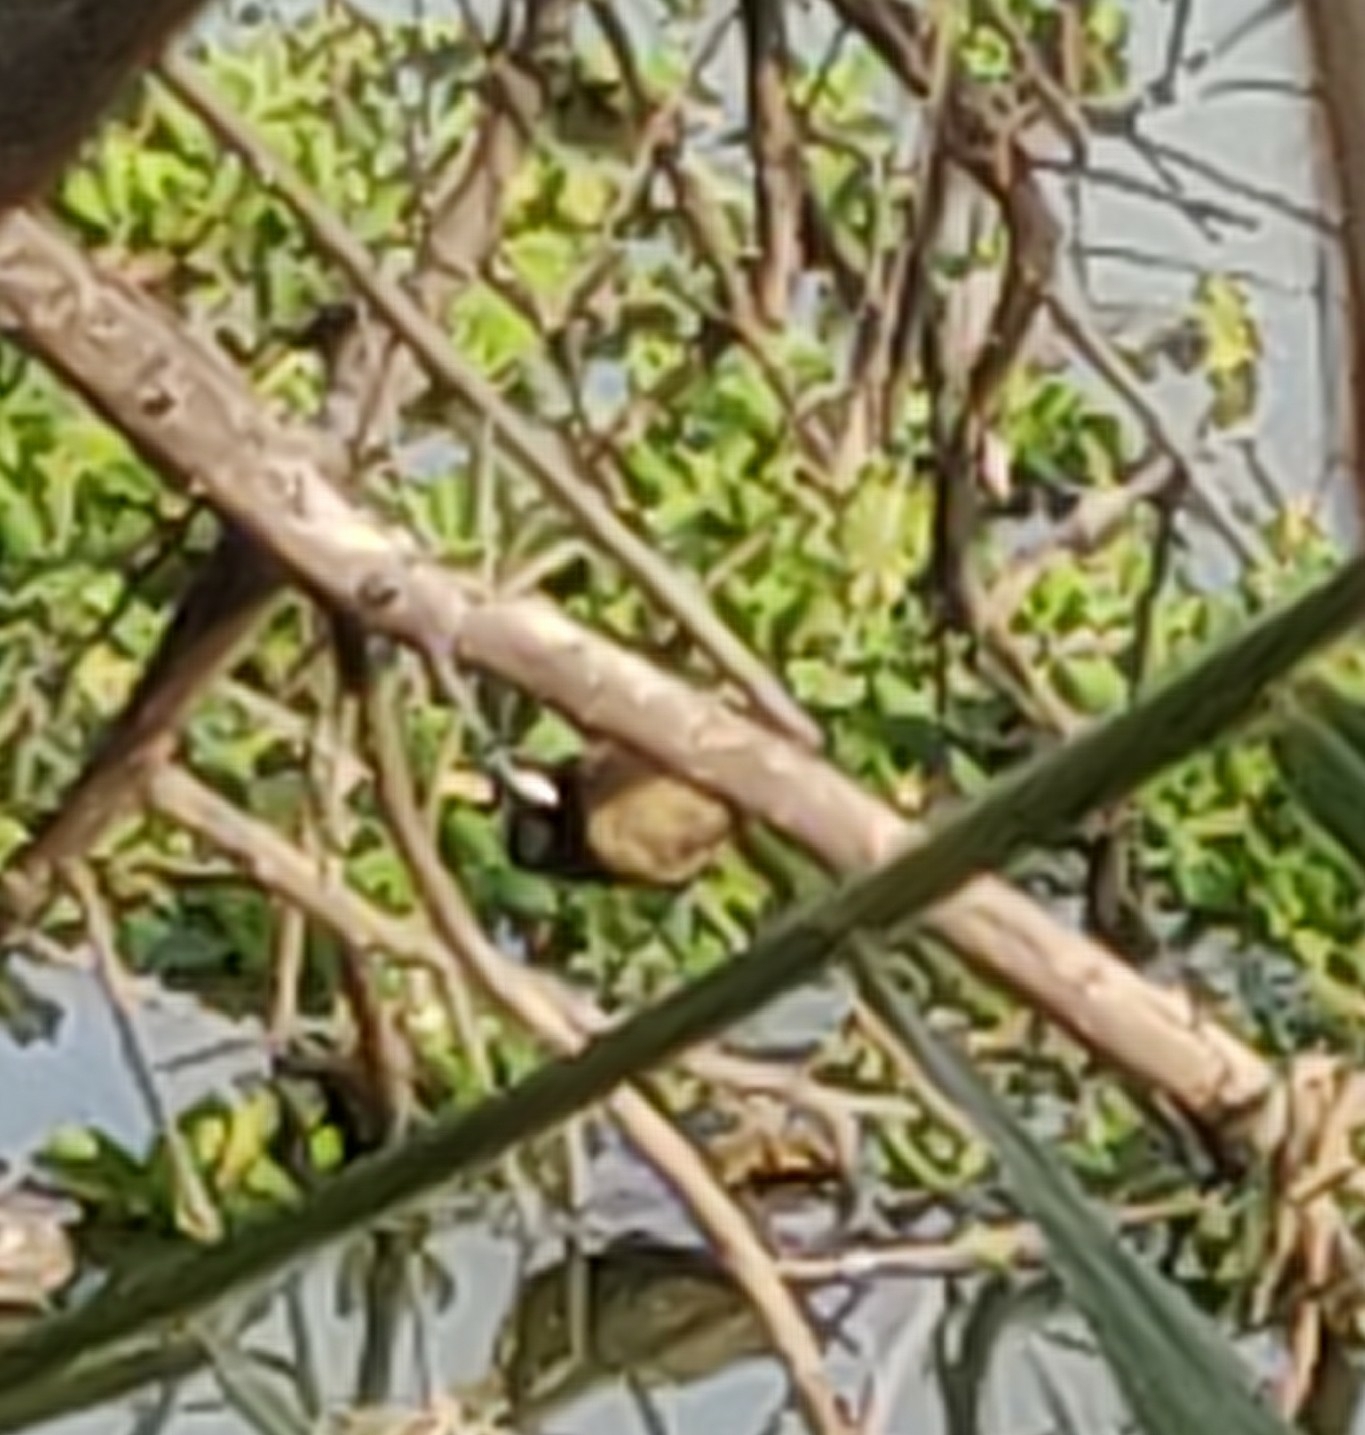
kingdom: Animalia
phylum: Chordata
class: Aves
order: Charadriiformes
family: Jacanidae
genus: Metopidius
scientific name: Metopidius indicus
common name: Bronze-winged jacana
